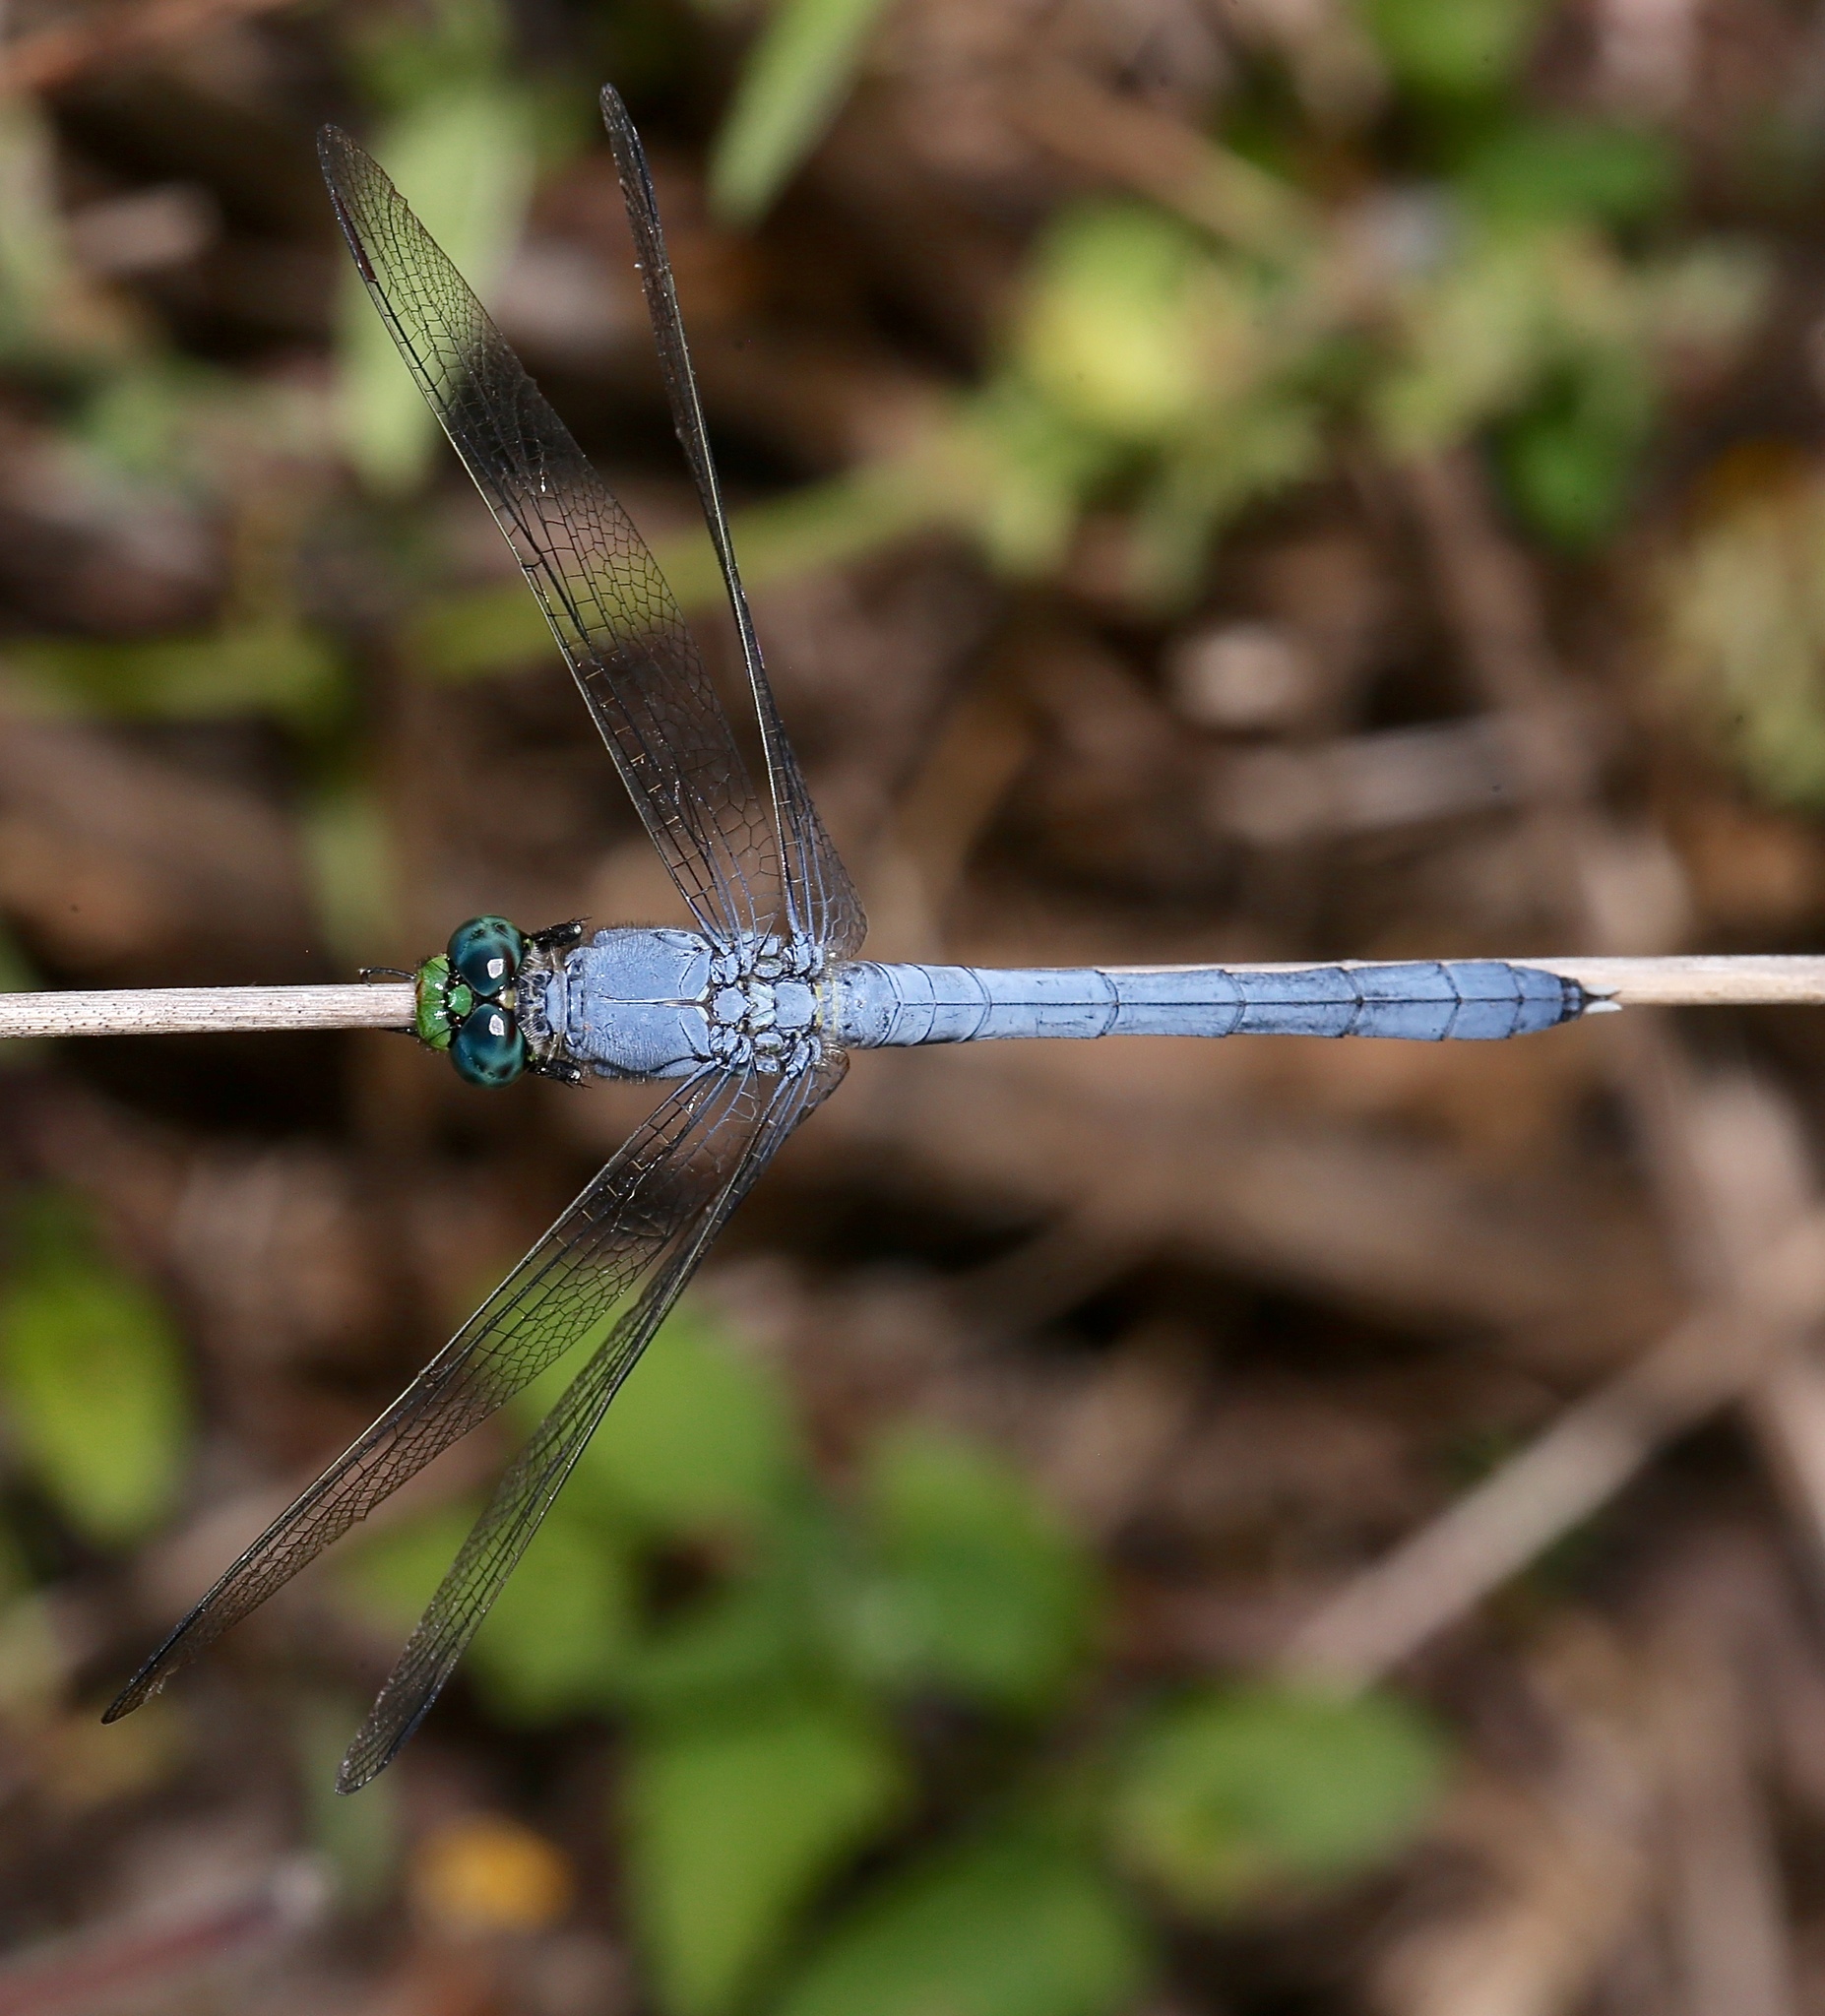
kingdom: Animalia
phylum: Arthropoda
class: Insecta
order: Odonata
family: Libellulidae
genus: Erythemis
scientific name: Erythemis simplicicollis
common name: Eastern pondhawk
